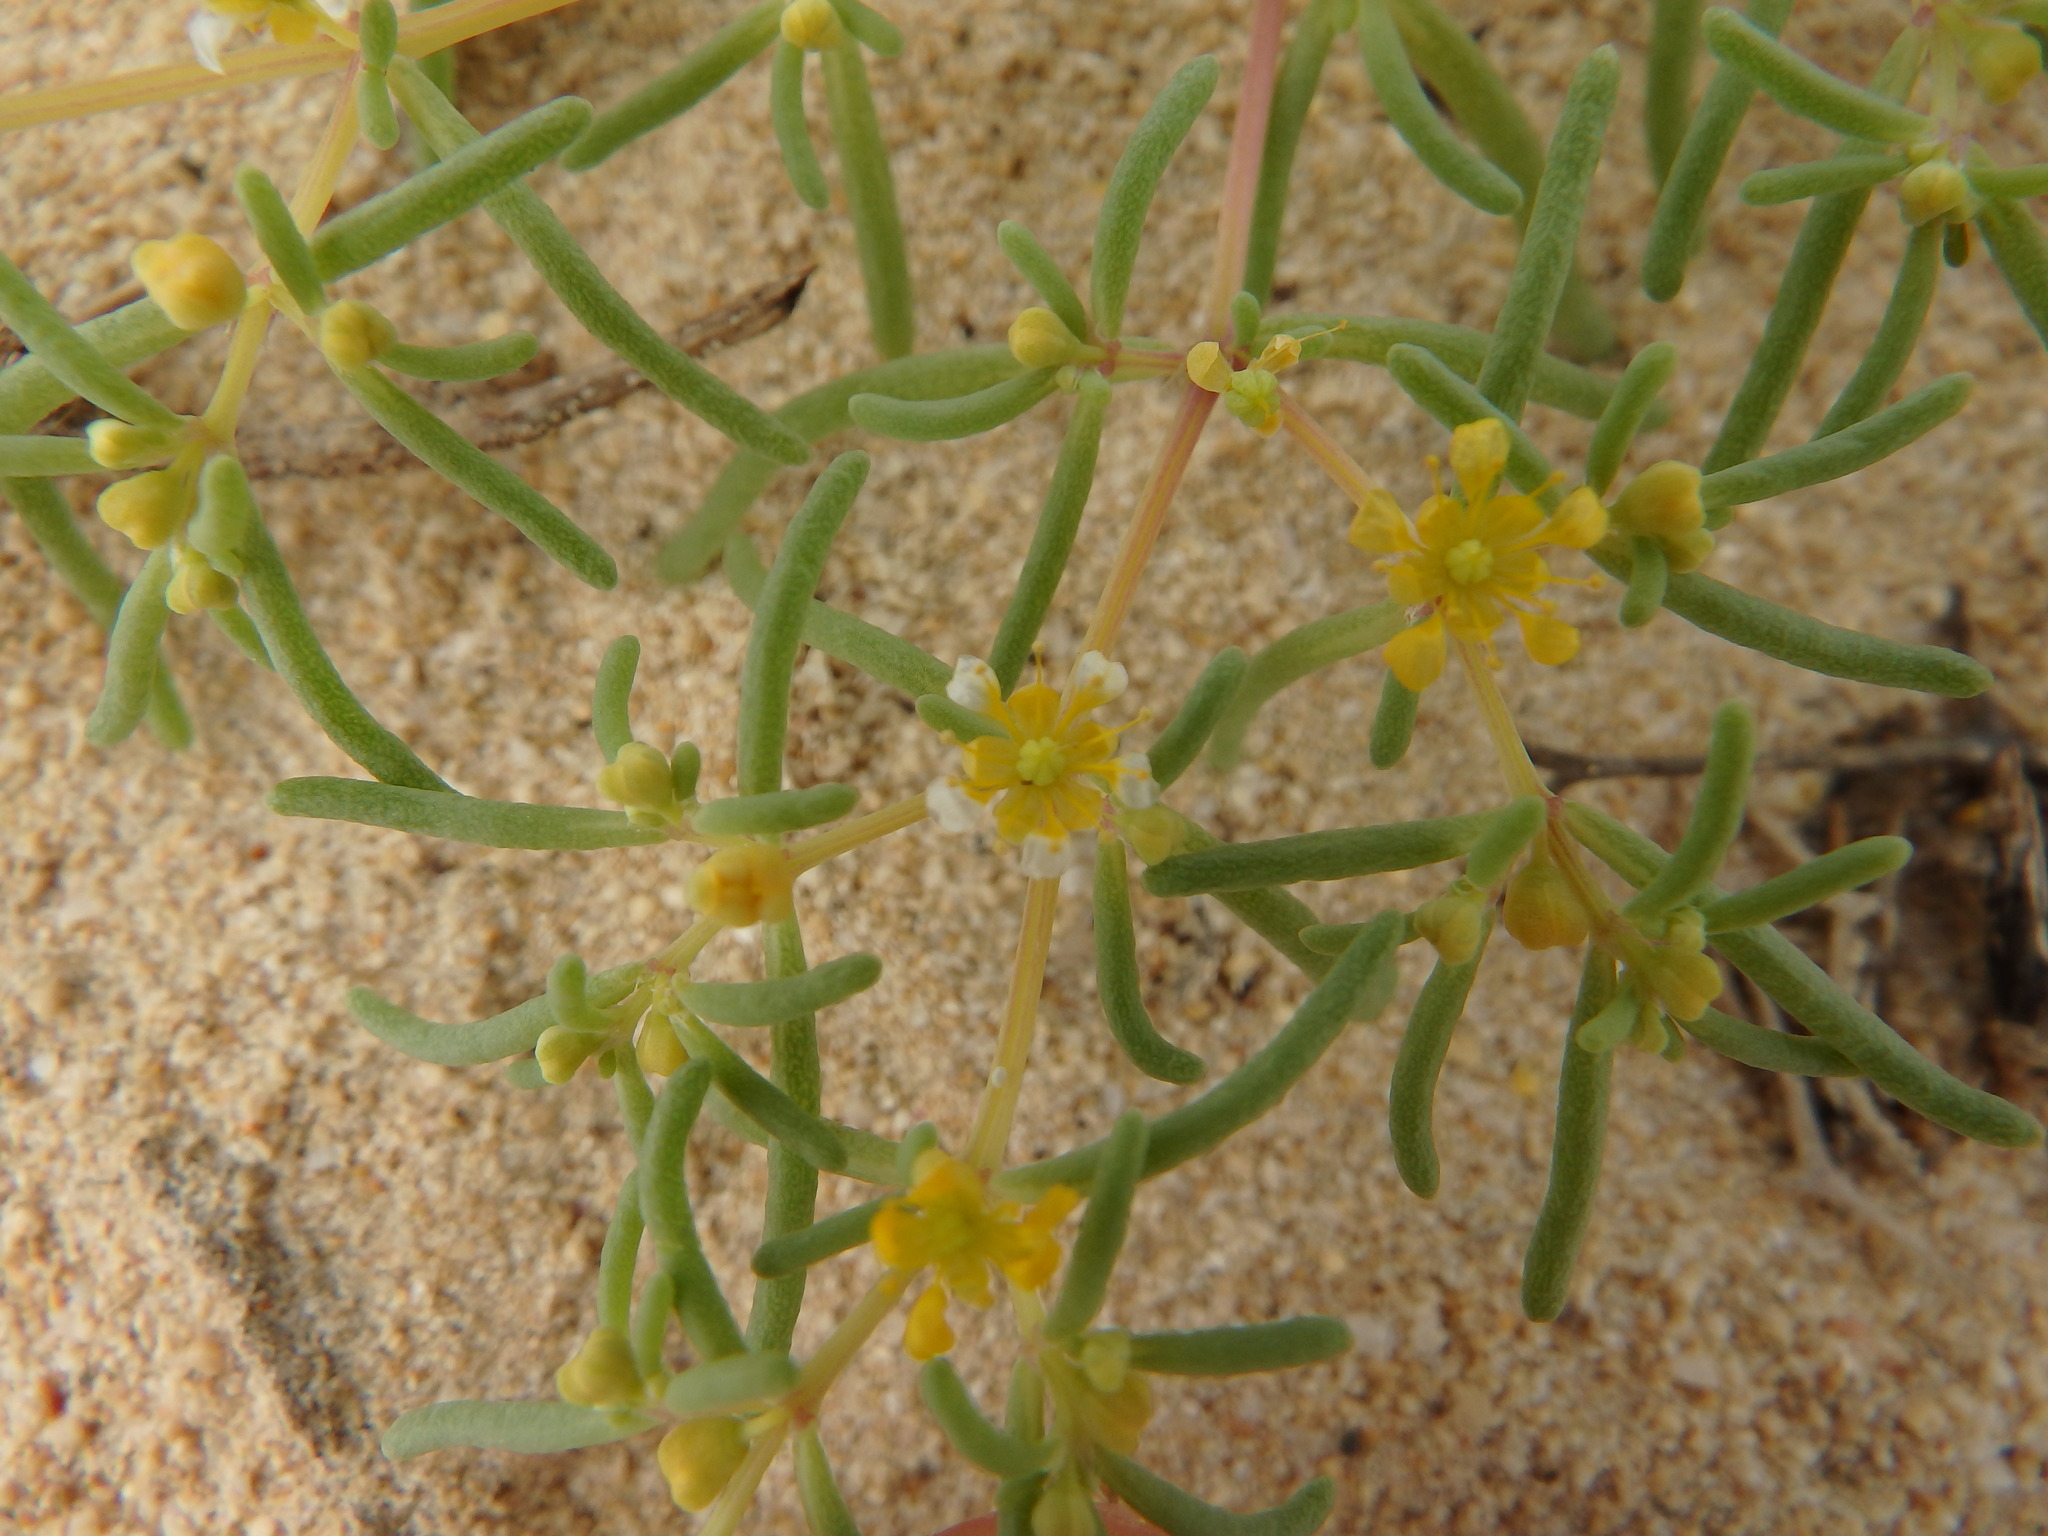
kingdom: Plantae
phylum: Tracheophyta
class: Magnoliopsida
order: Zygophyllales
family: Zygophyllaceae
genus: Tetraena
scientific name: Tetraena simplex
